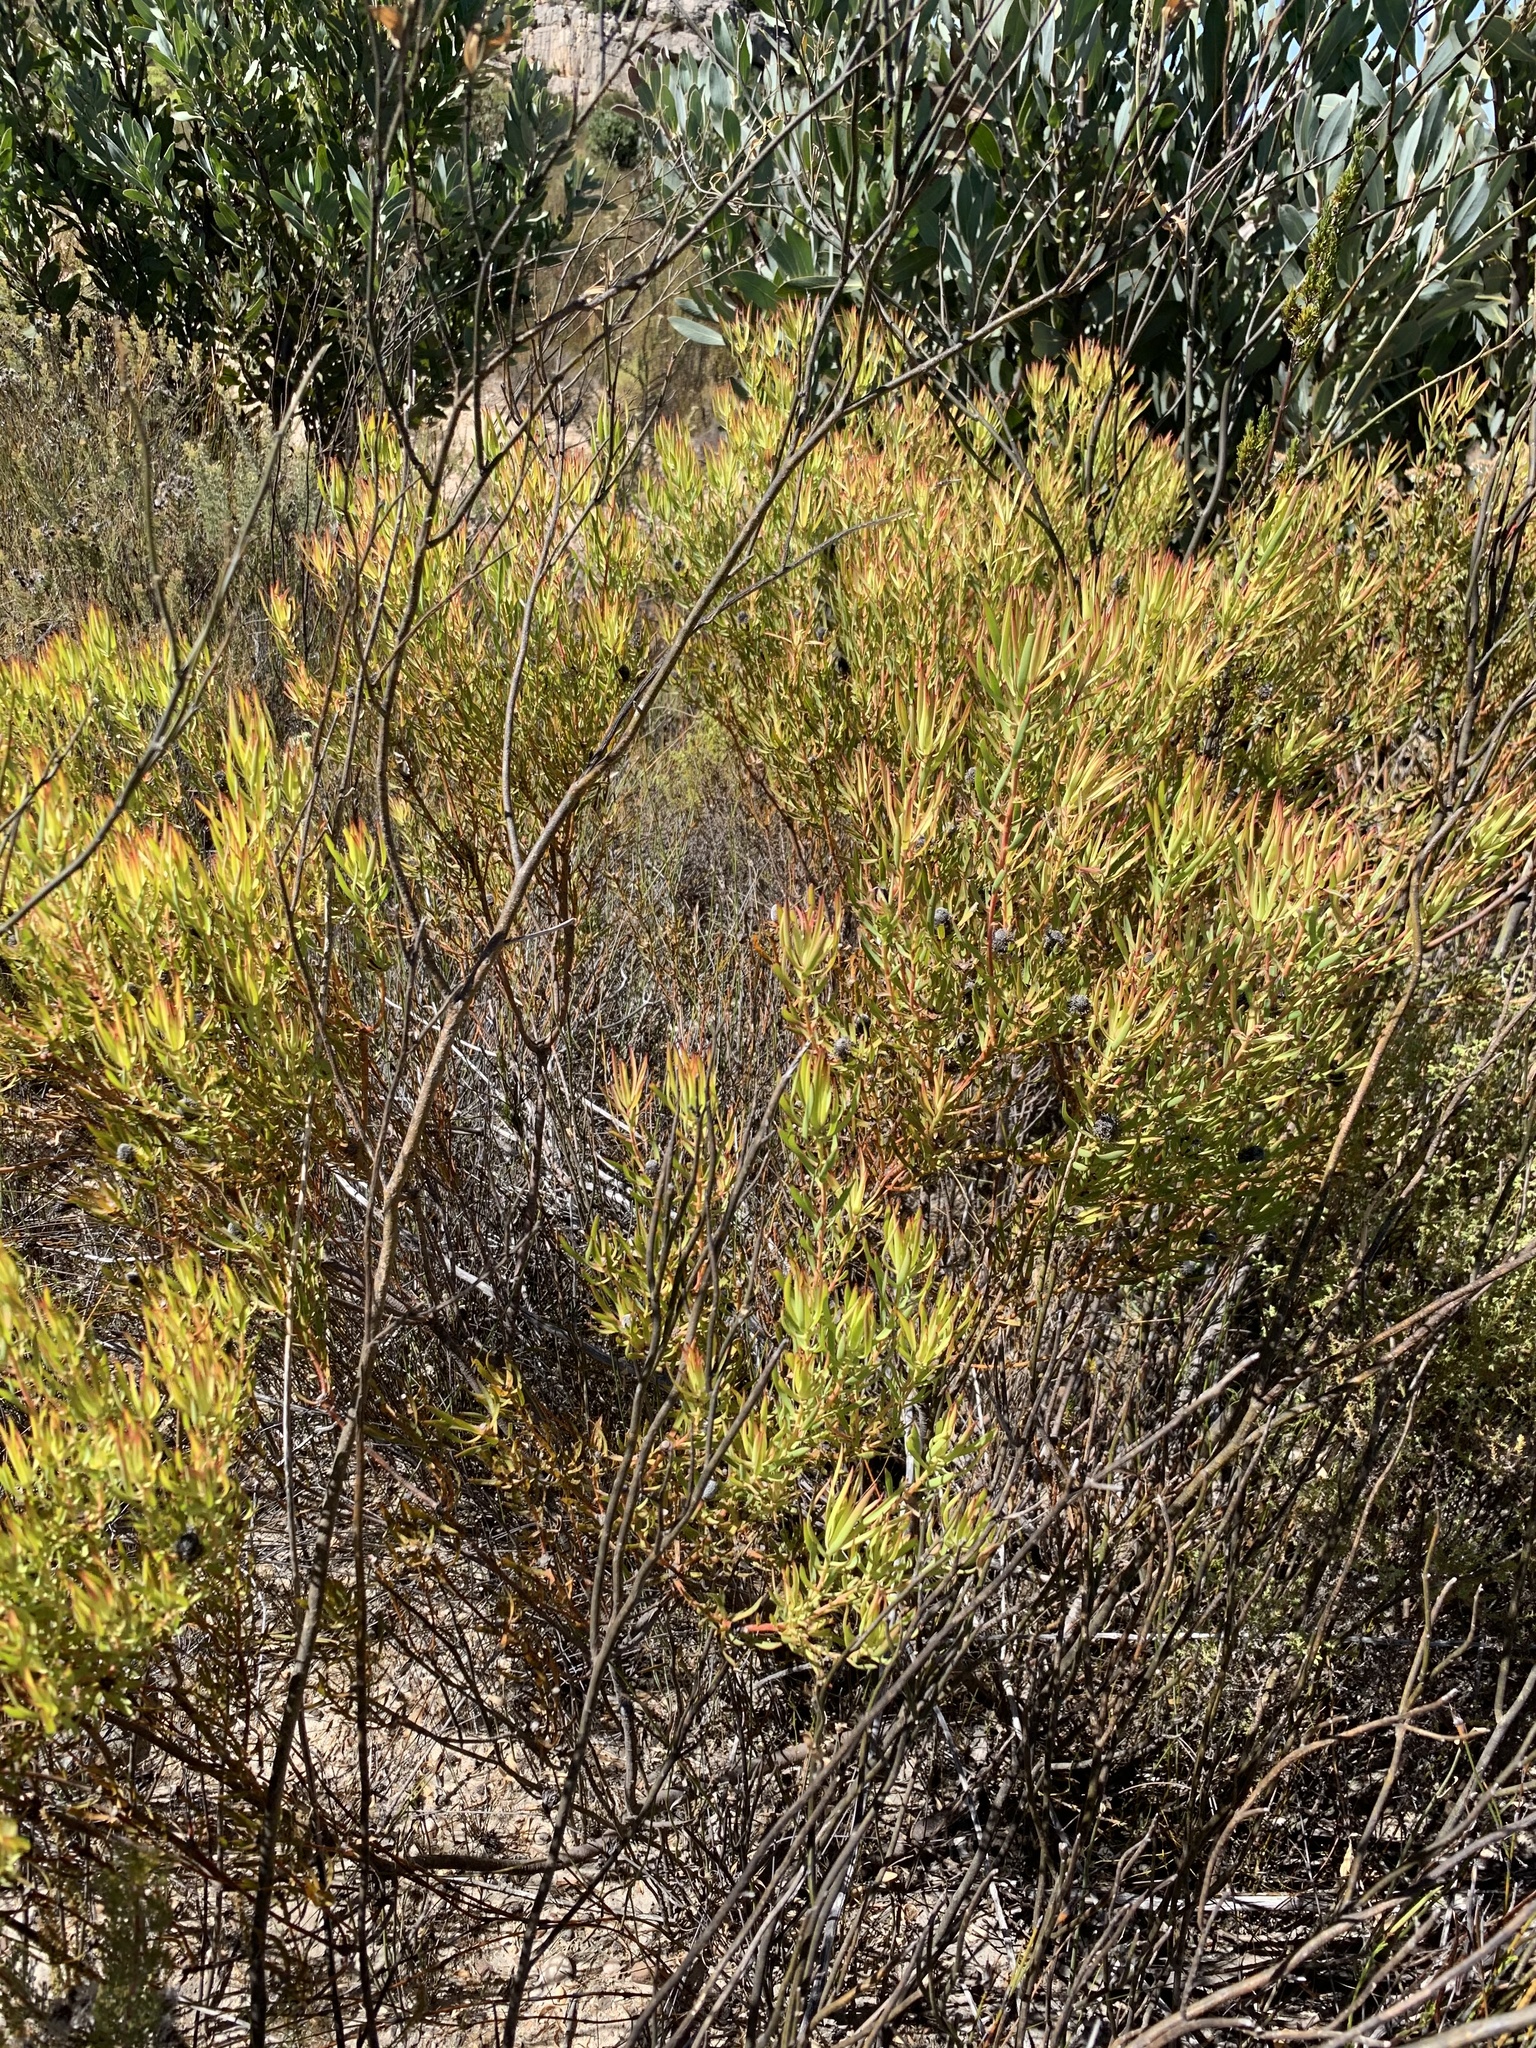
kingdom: Plantae
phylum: Tracheophyta
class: Magnoliopsida
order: Proteales
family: Proteaceae
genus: Leucadendron
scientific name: Leucadendron salignum
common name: Common sunshine conebush
